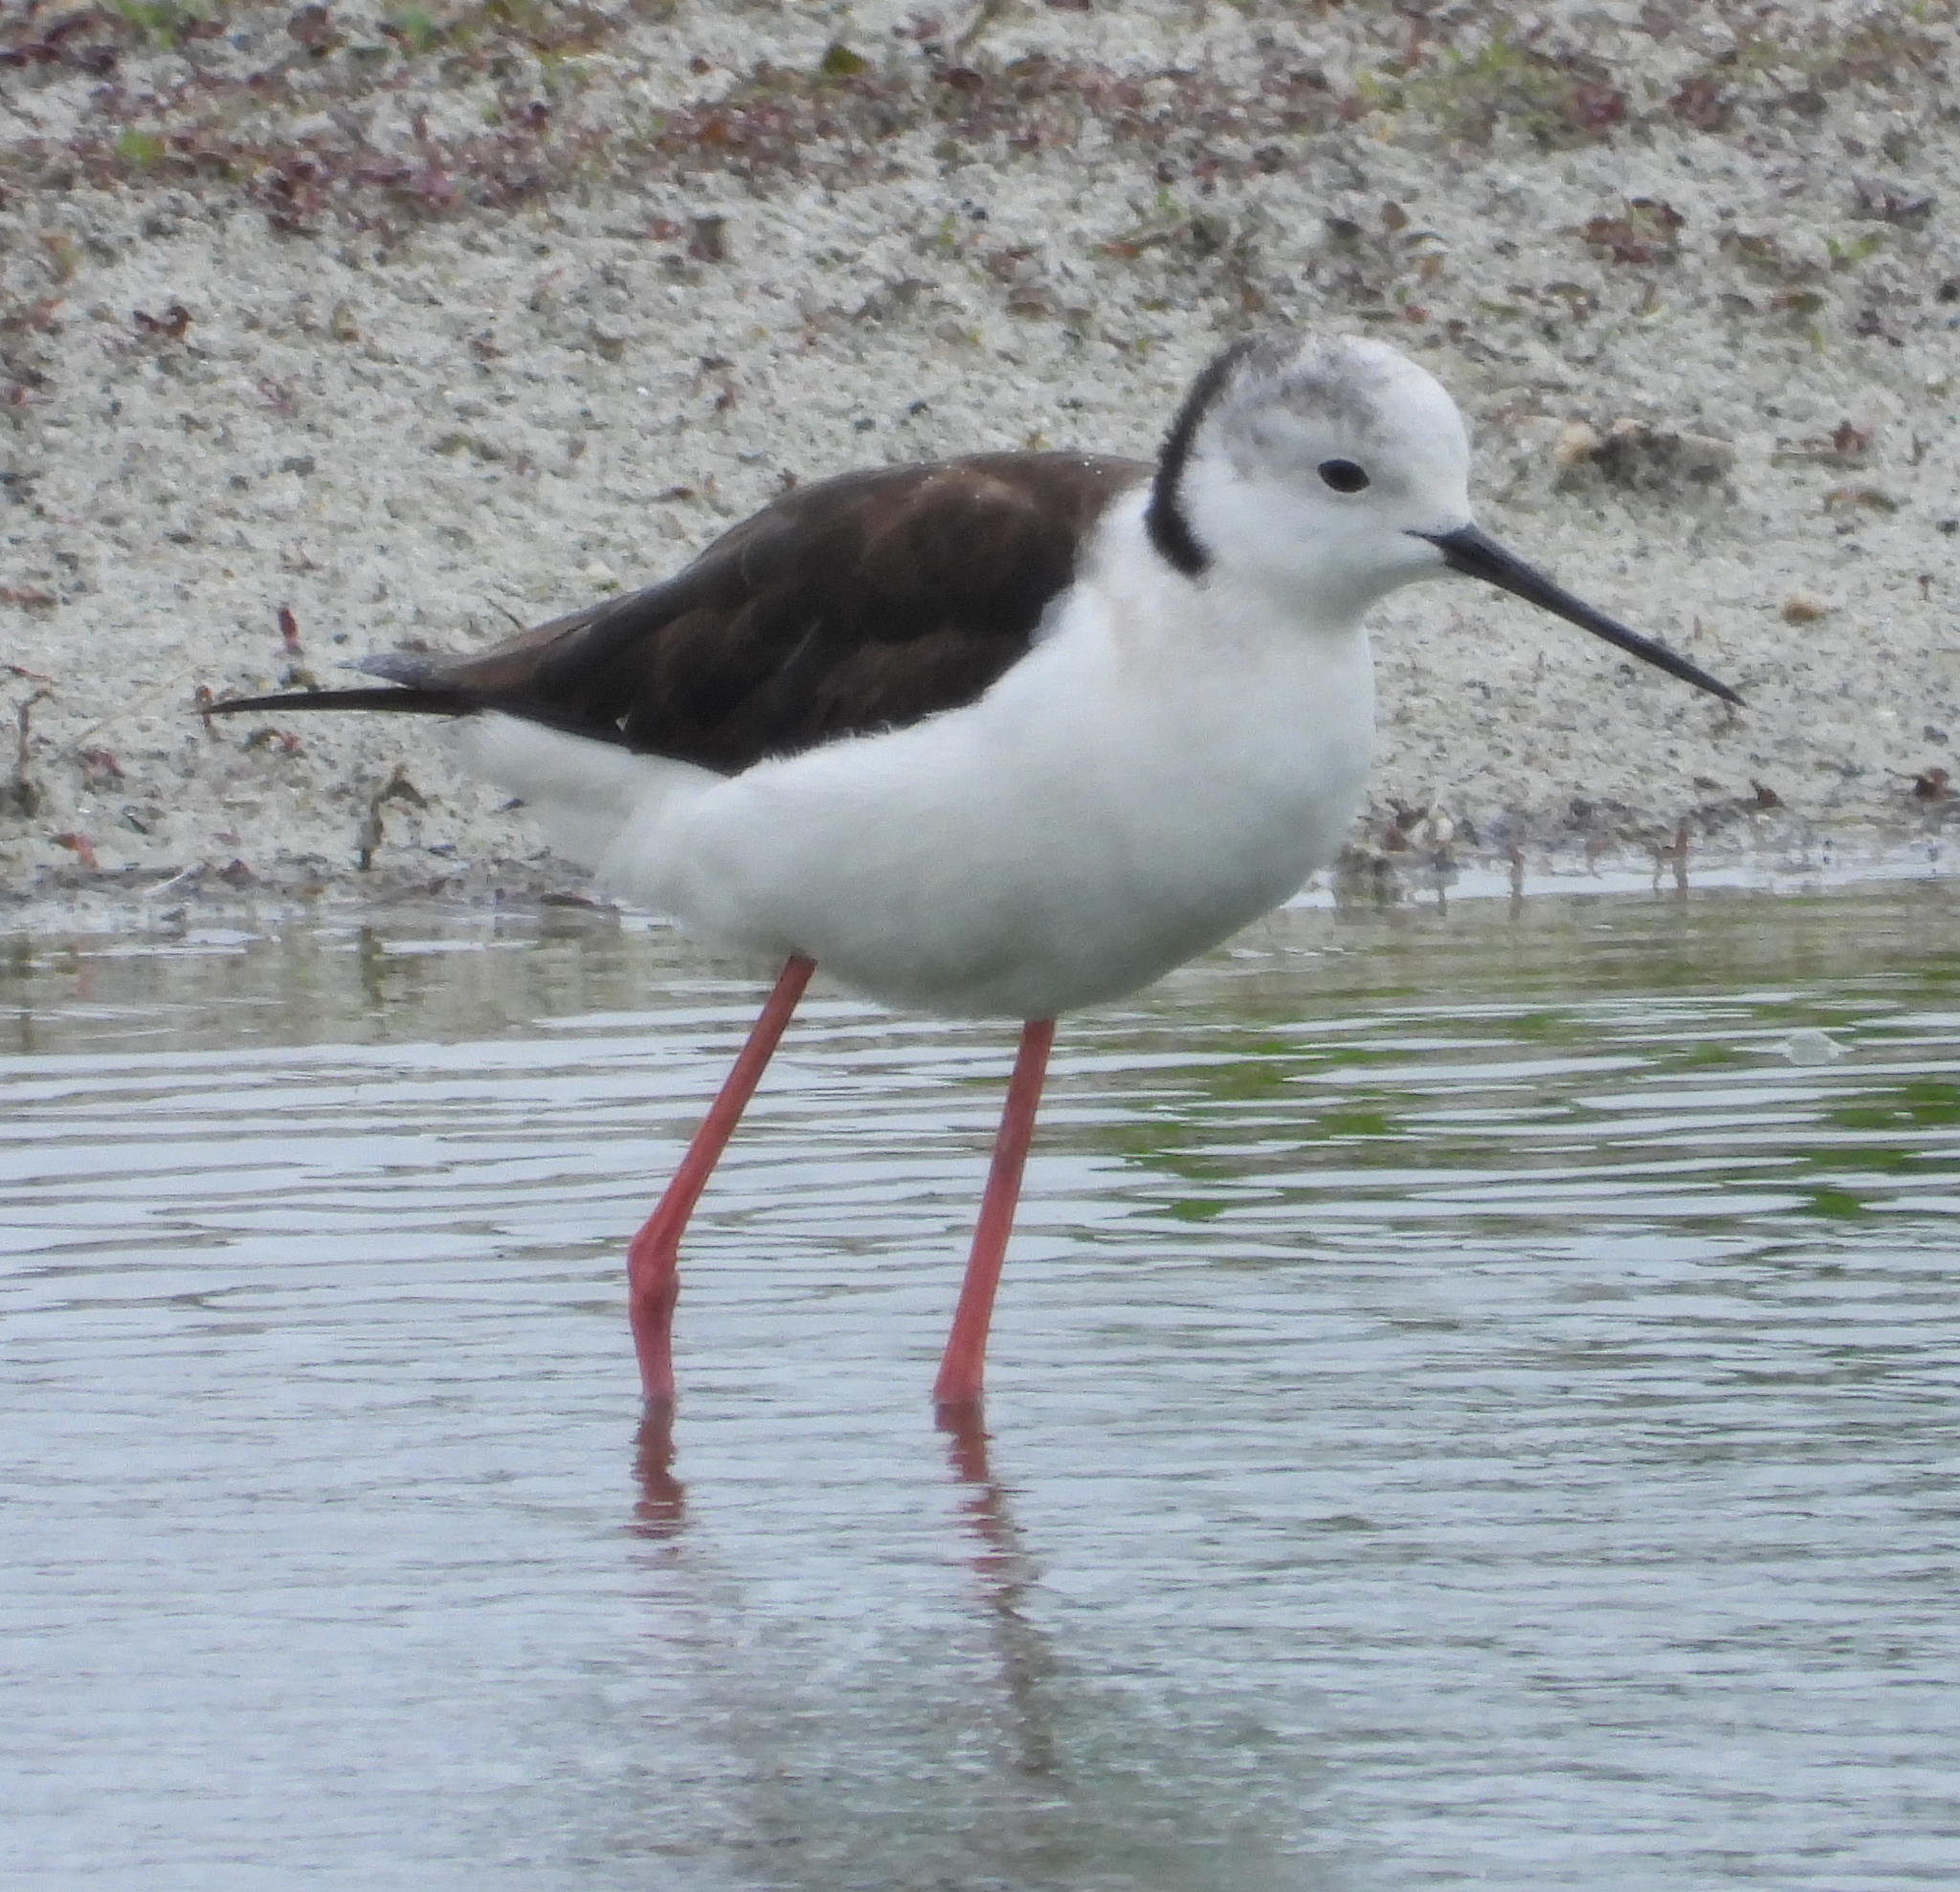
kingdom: Animalia
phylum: Chordata
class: Aves
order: Charadriiformes
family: Recurvirostridae
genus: Himantopus
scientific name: Himantopus himantopus
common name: Black-winged stilt
